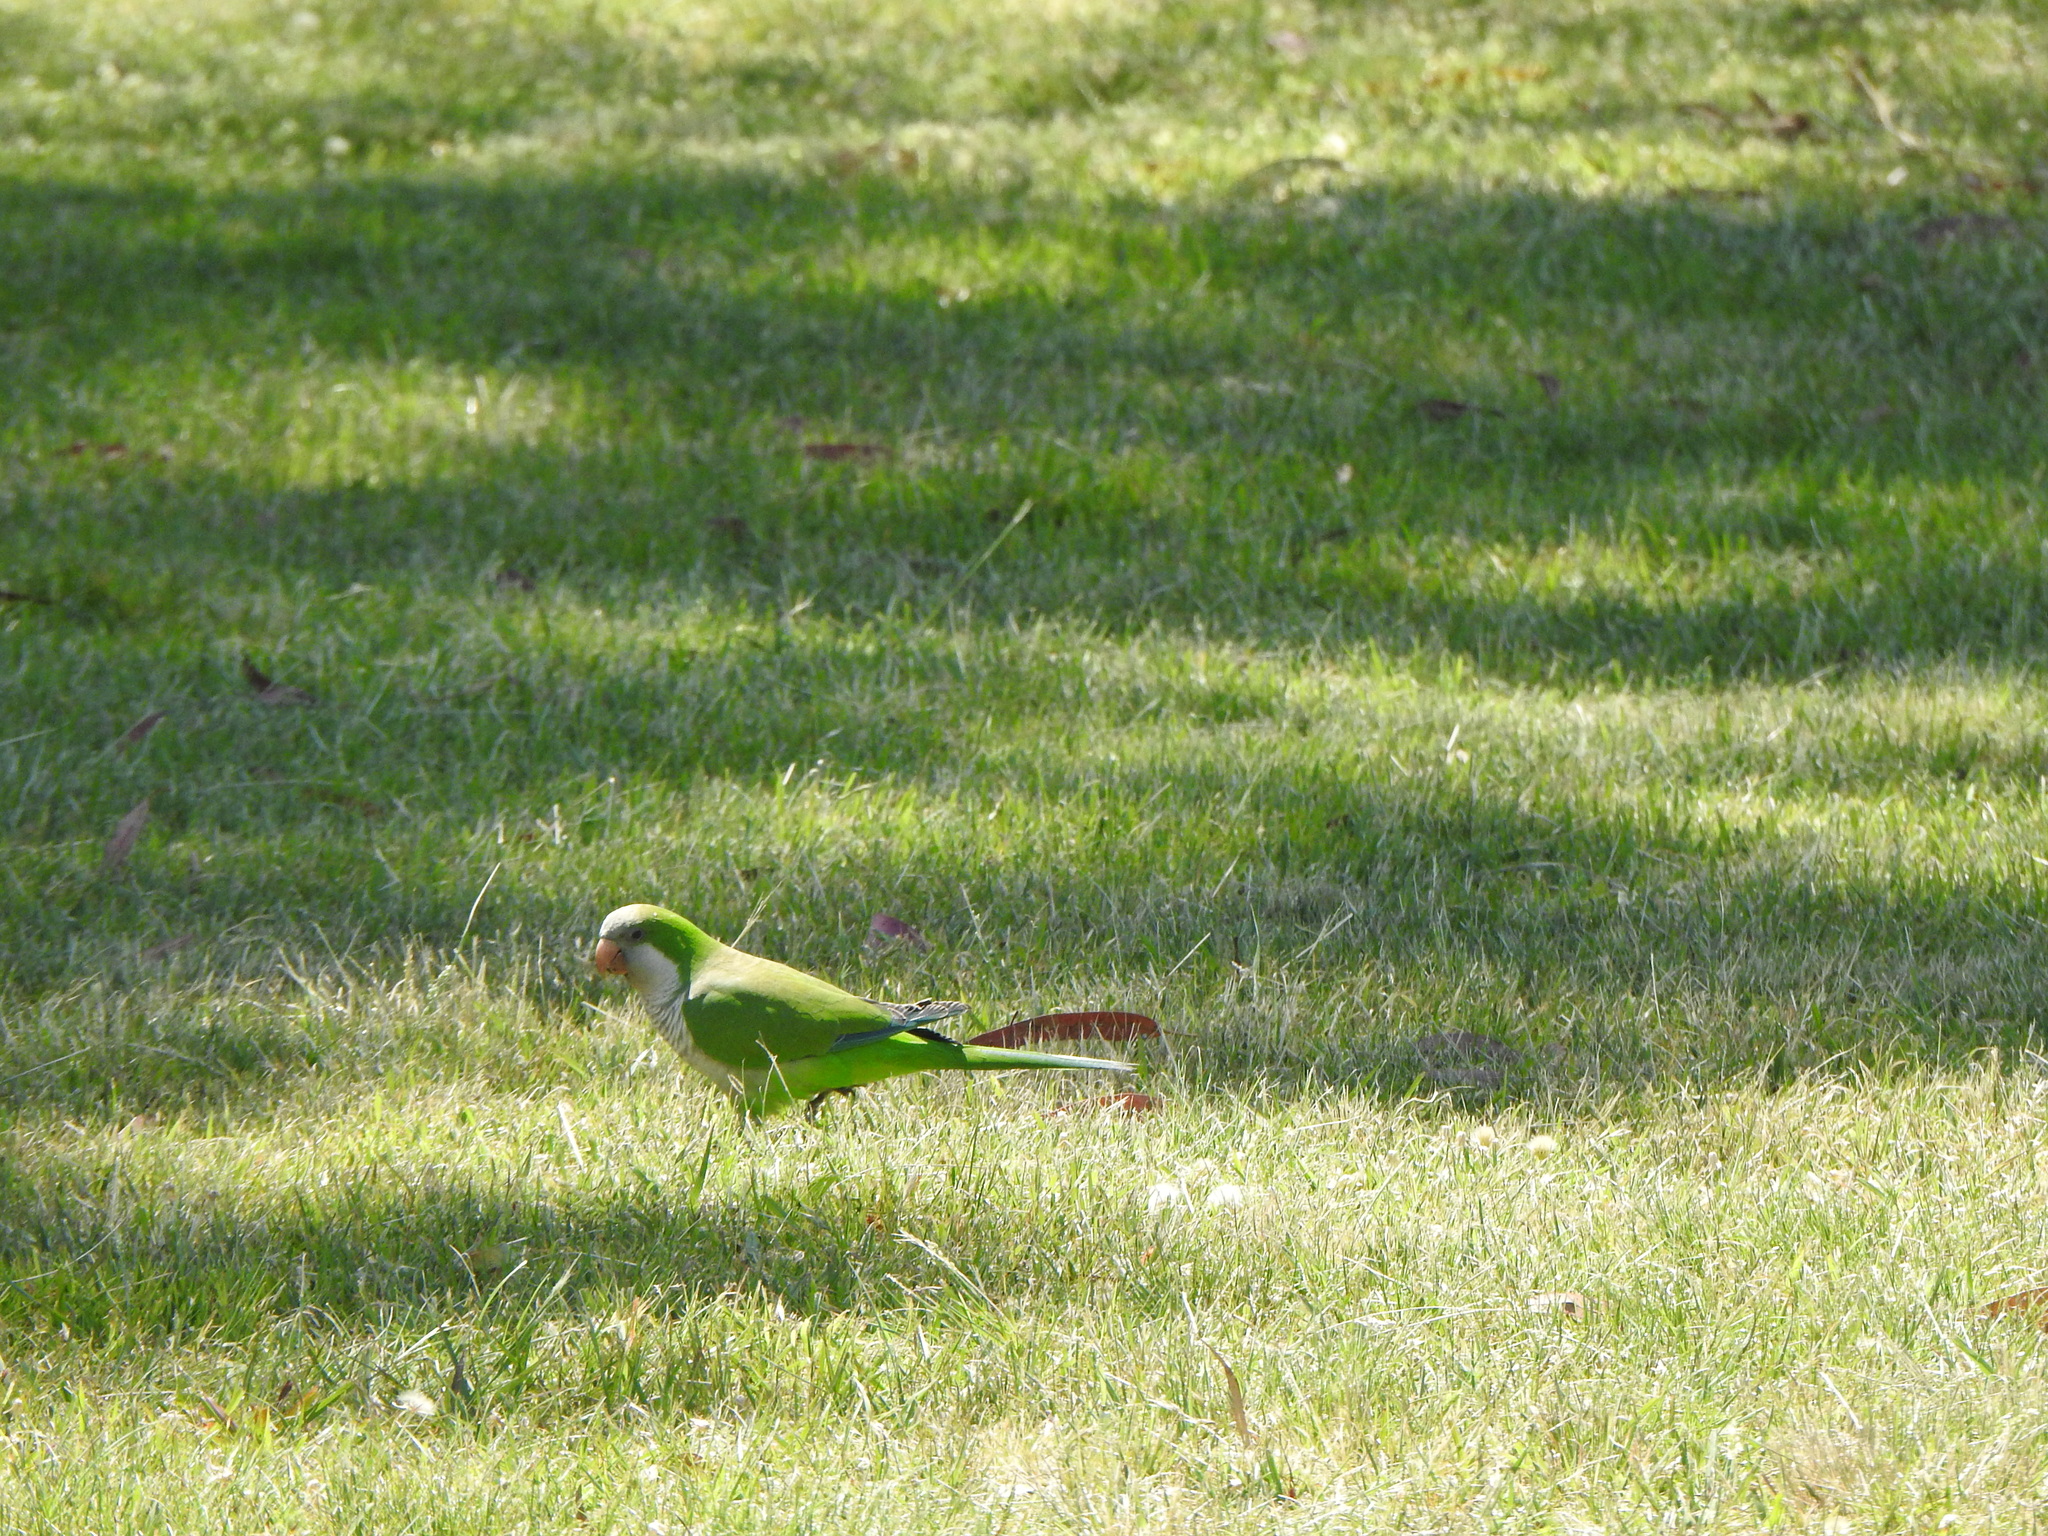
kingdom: Animalia
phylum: Chordata
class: Aves
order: Psittaciformes
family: Psittacidae
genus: Myiopsitta
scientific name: Myiopsitta monachus
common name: Monk parakeet
